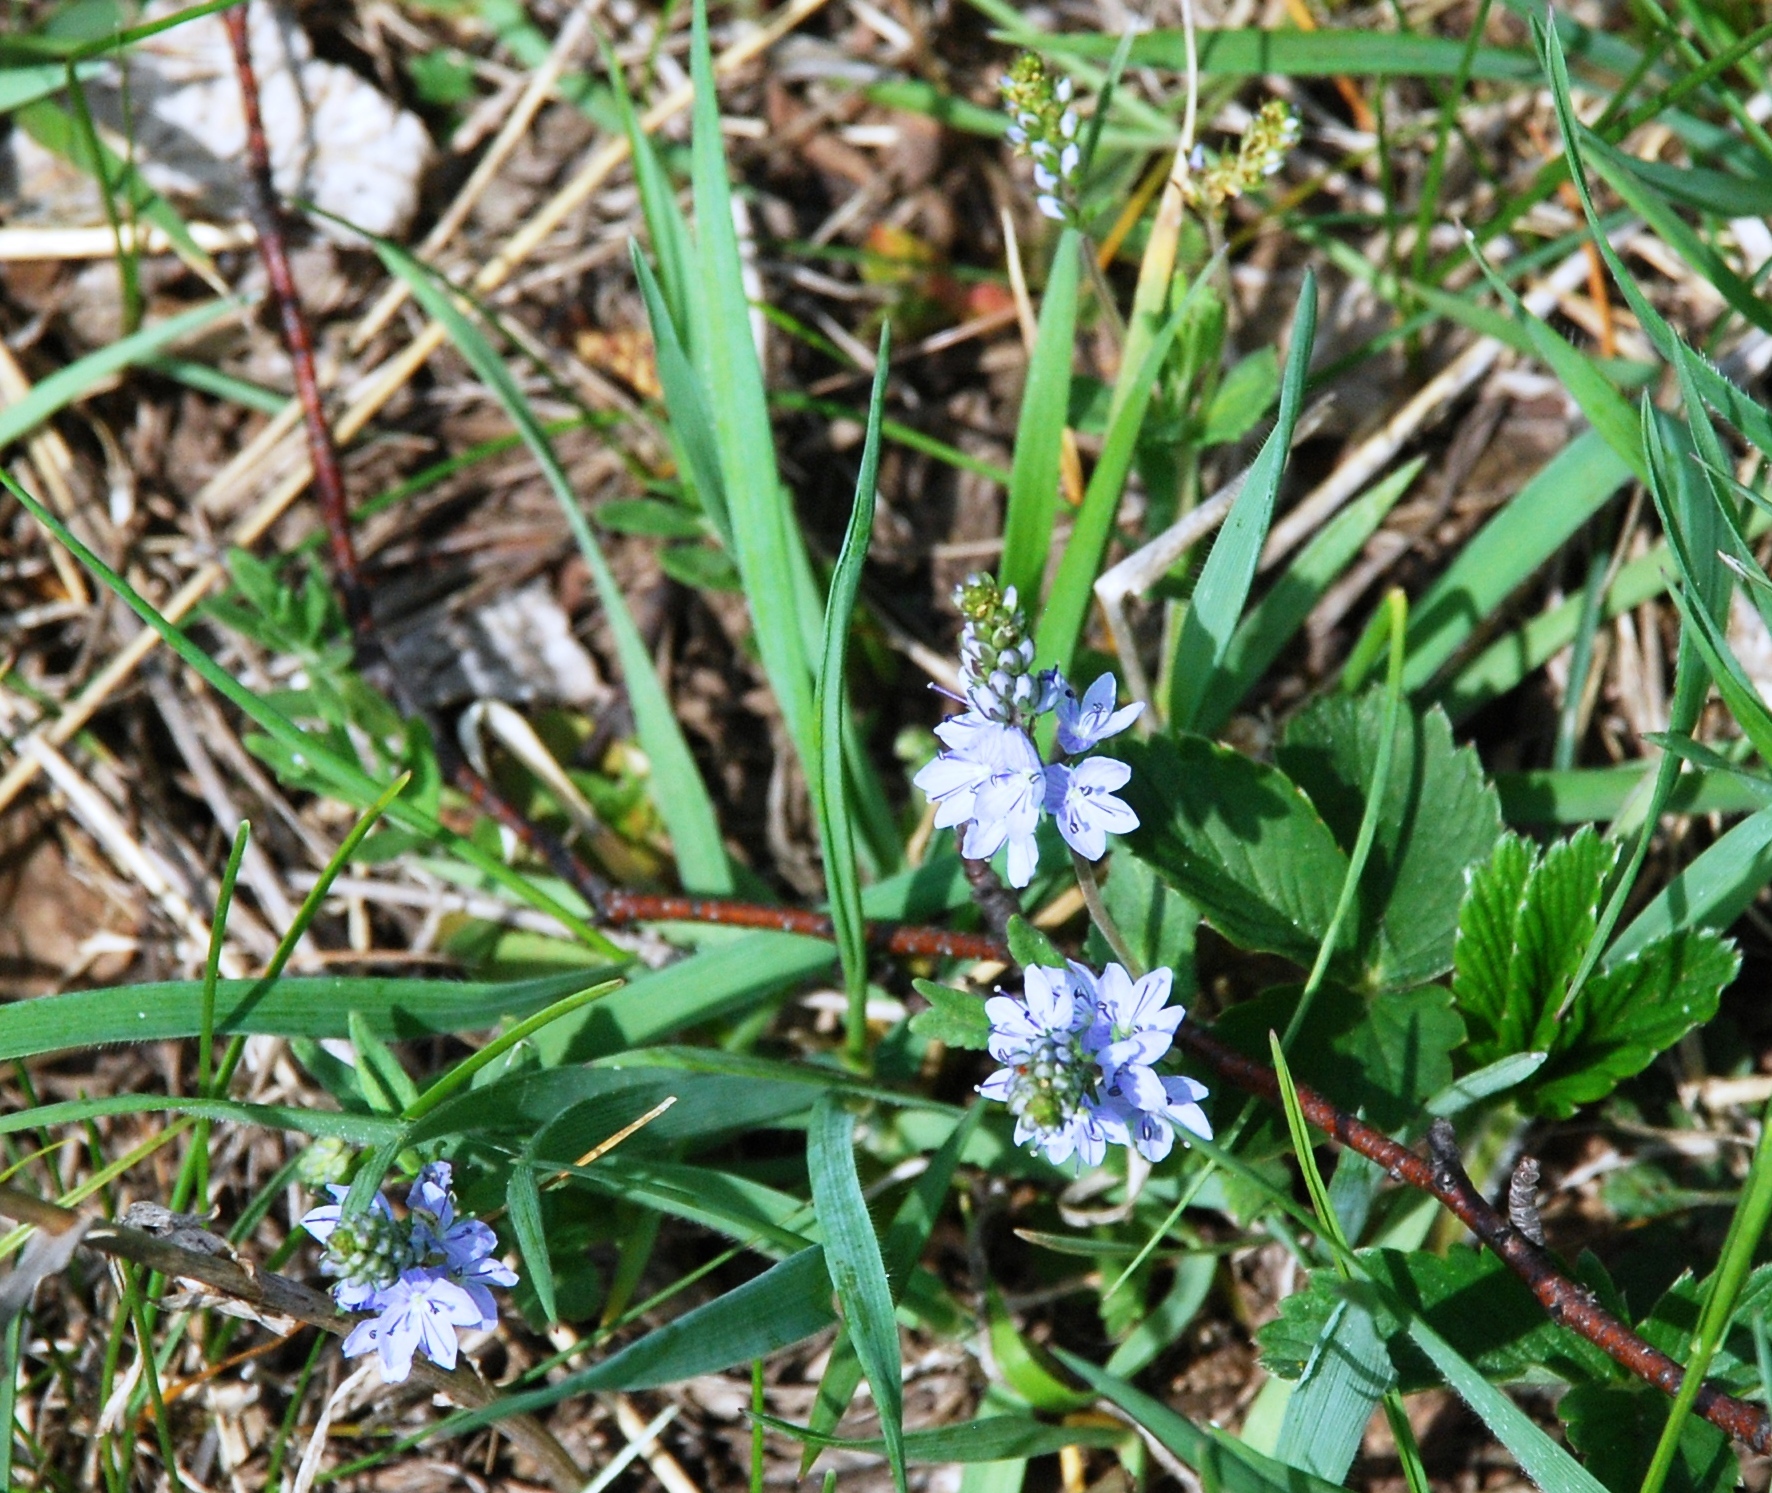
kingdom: Plantae
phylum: Tracheophyta
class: Magnoliopsida
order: Lamiales
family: Plantaginaceae
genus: Veronica
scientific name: Veronica prostrata
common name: Prostrate speedwell
